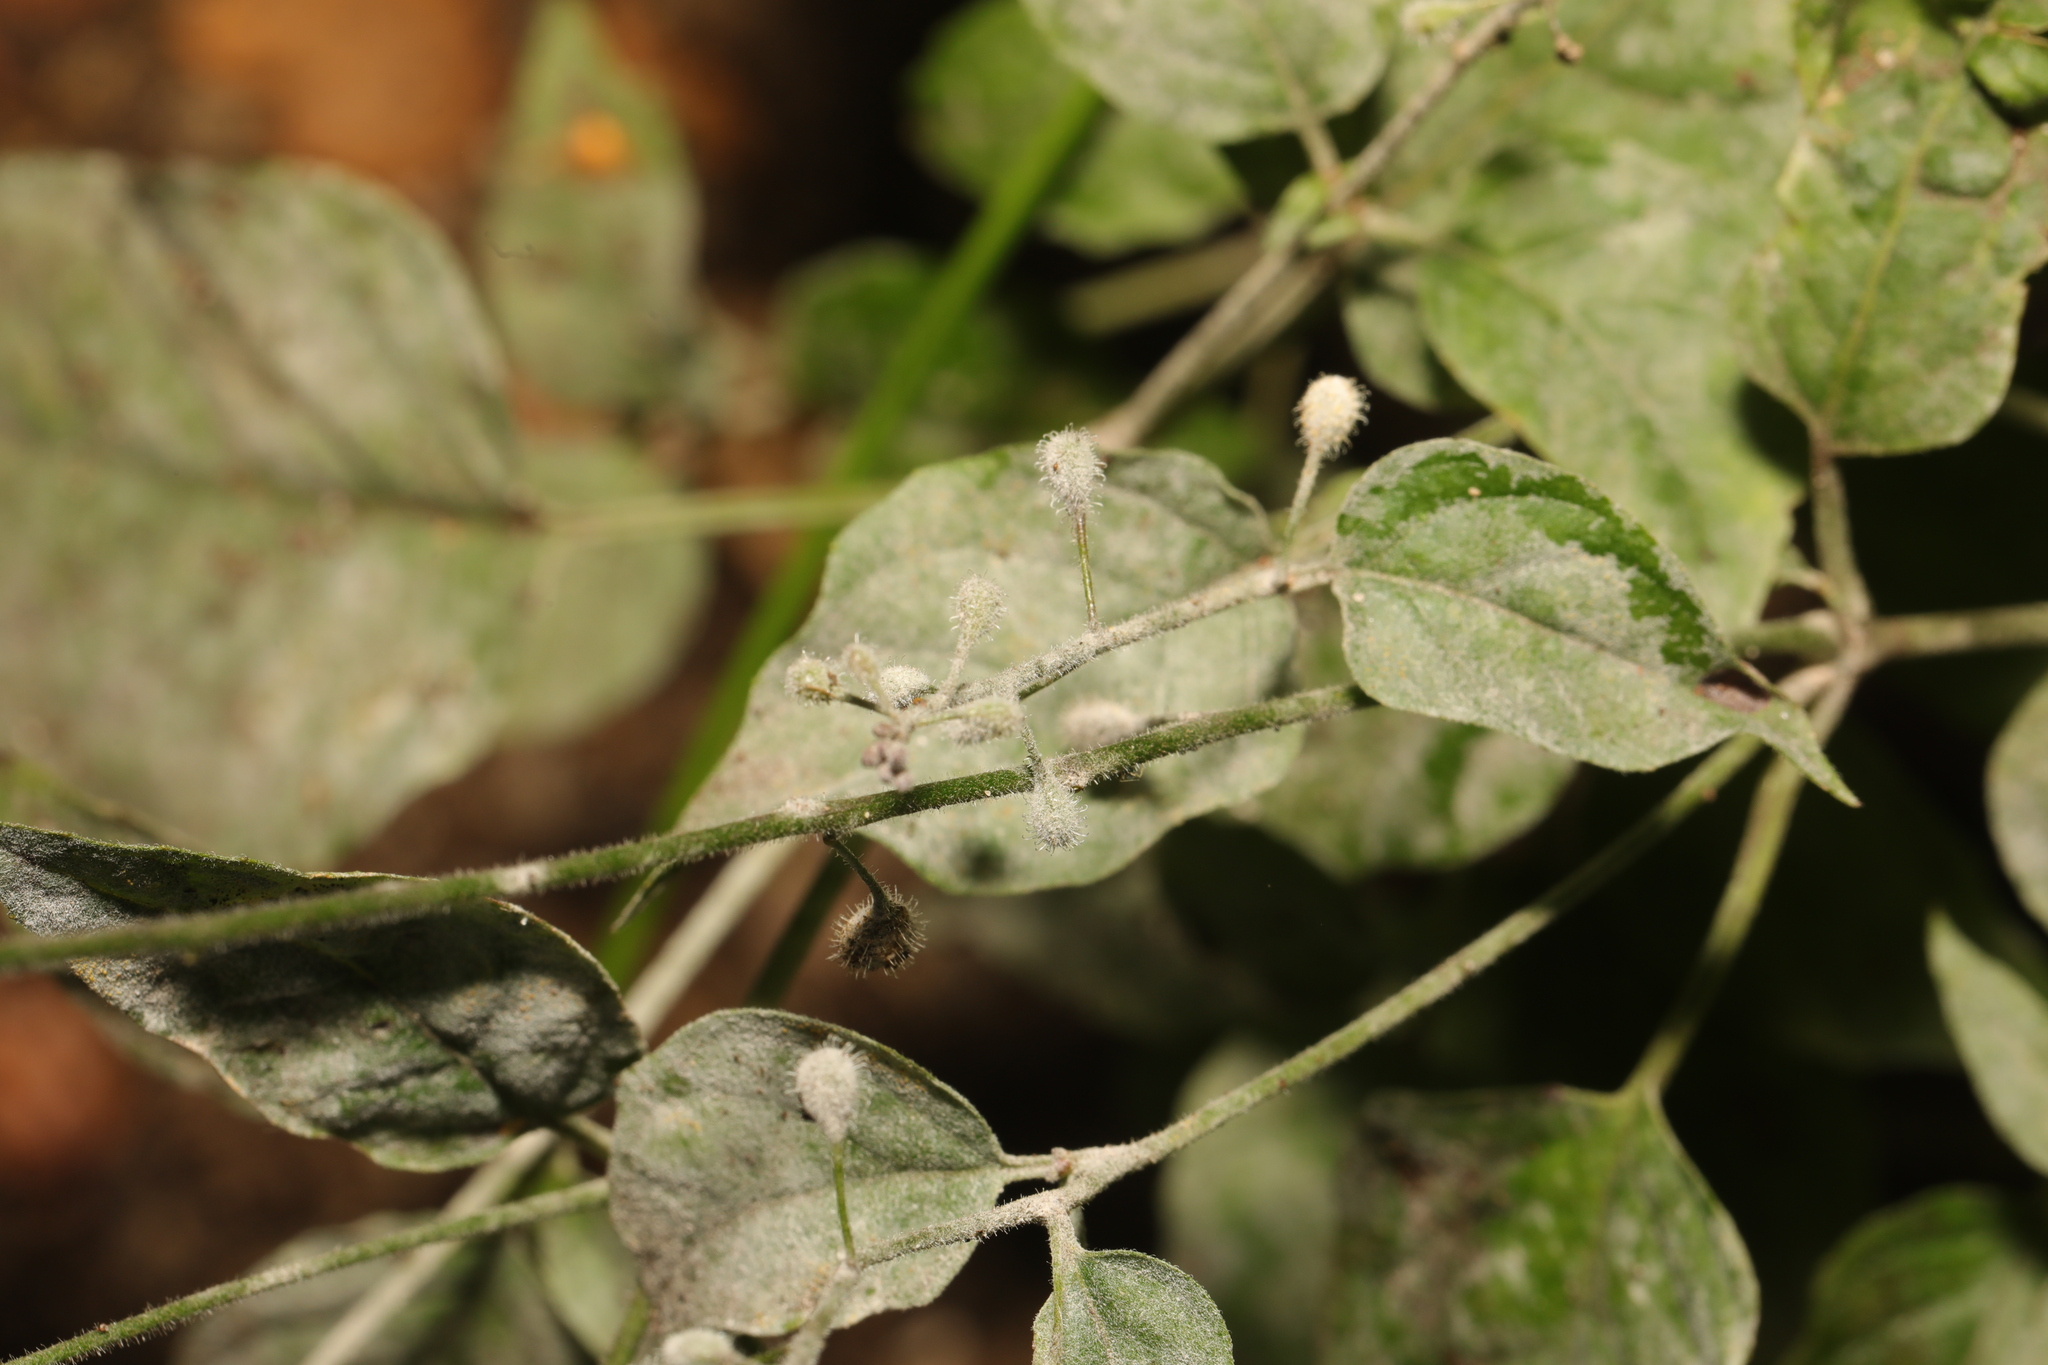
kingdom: Fungi
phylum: Ascomycota
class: Leotiomycetes
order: Helotiales
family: Erysiphaceae
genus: Erysiphe
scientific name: Erysiphe circaeae
